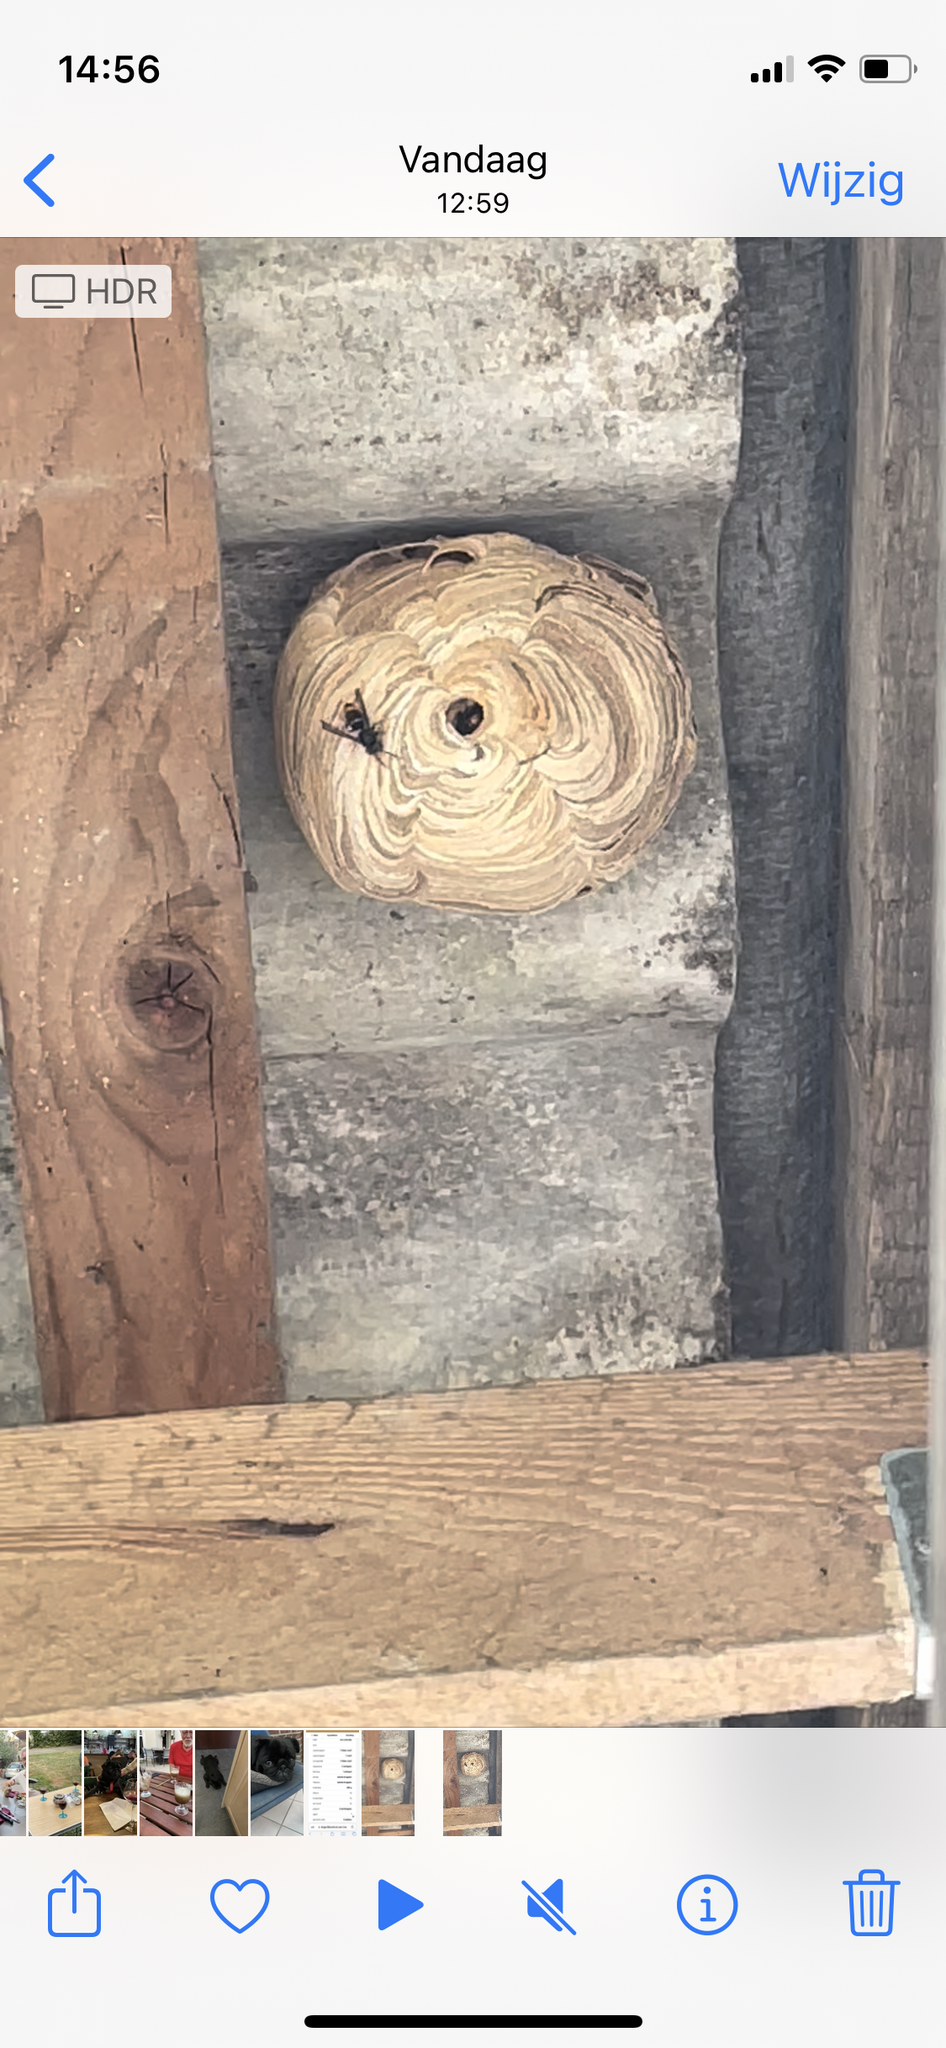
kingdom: Animalia
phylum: Arthropoda
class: Insecta
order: Hymenoptera
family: Vespidae
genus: Vespa
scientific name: Vespa velutina
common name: Asian hornet
